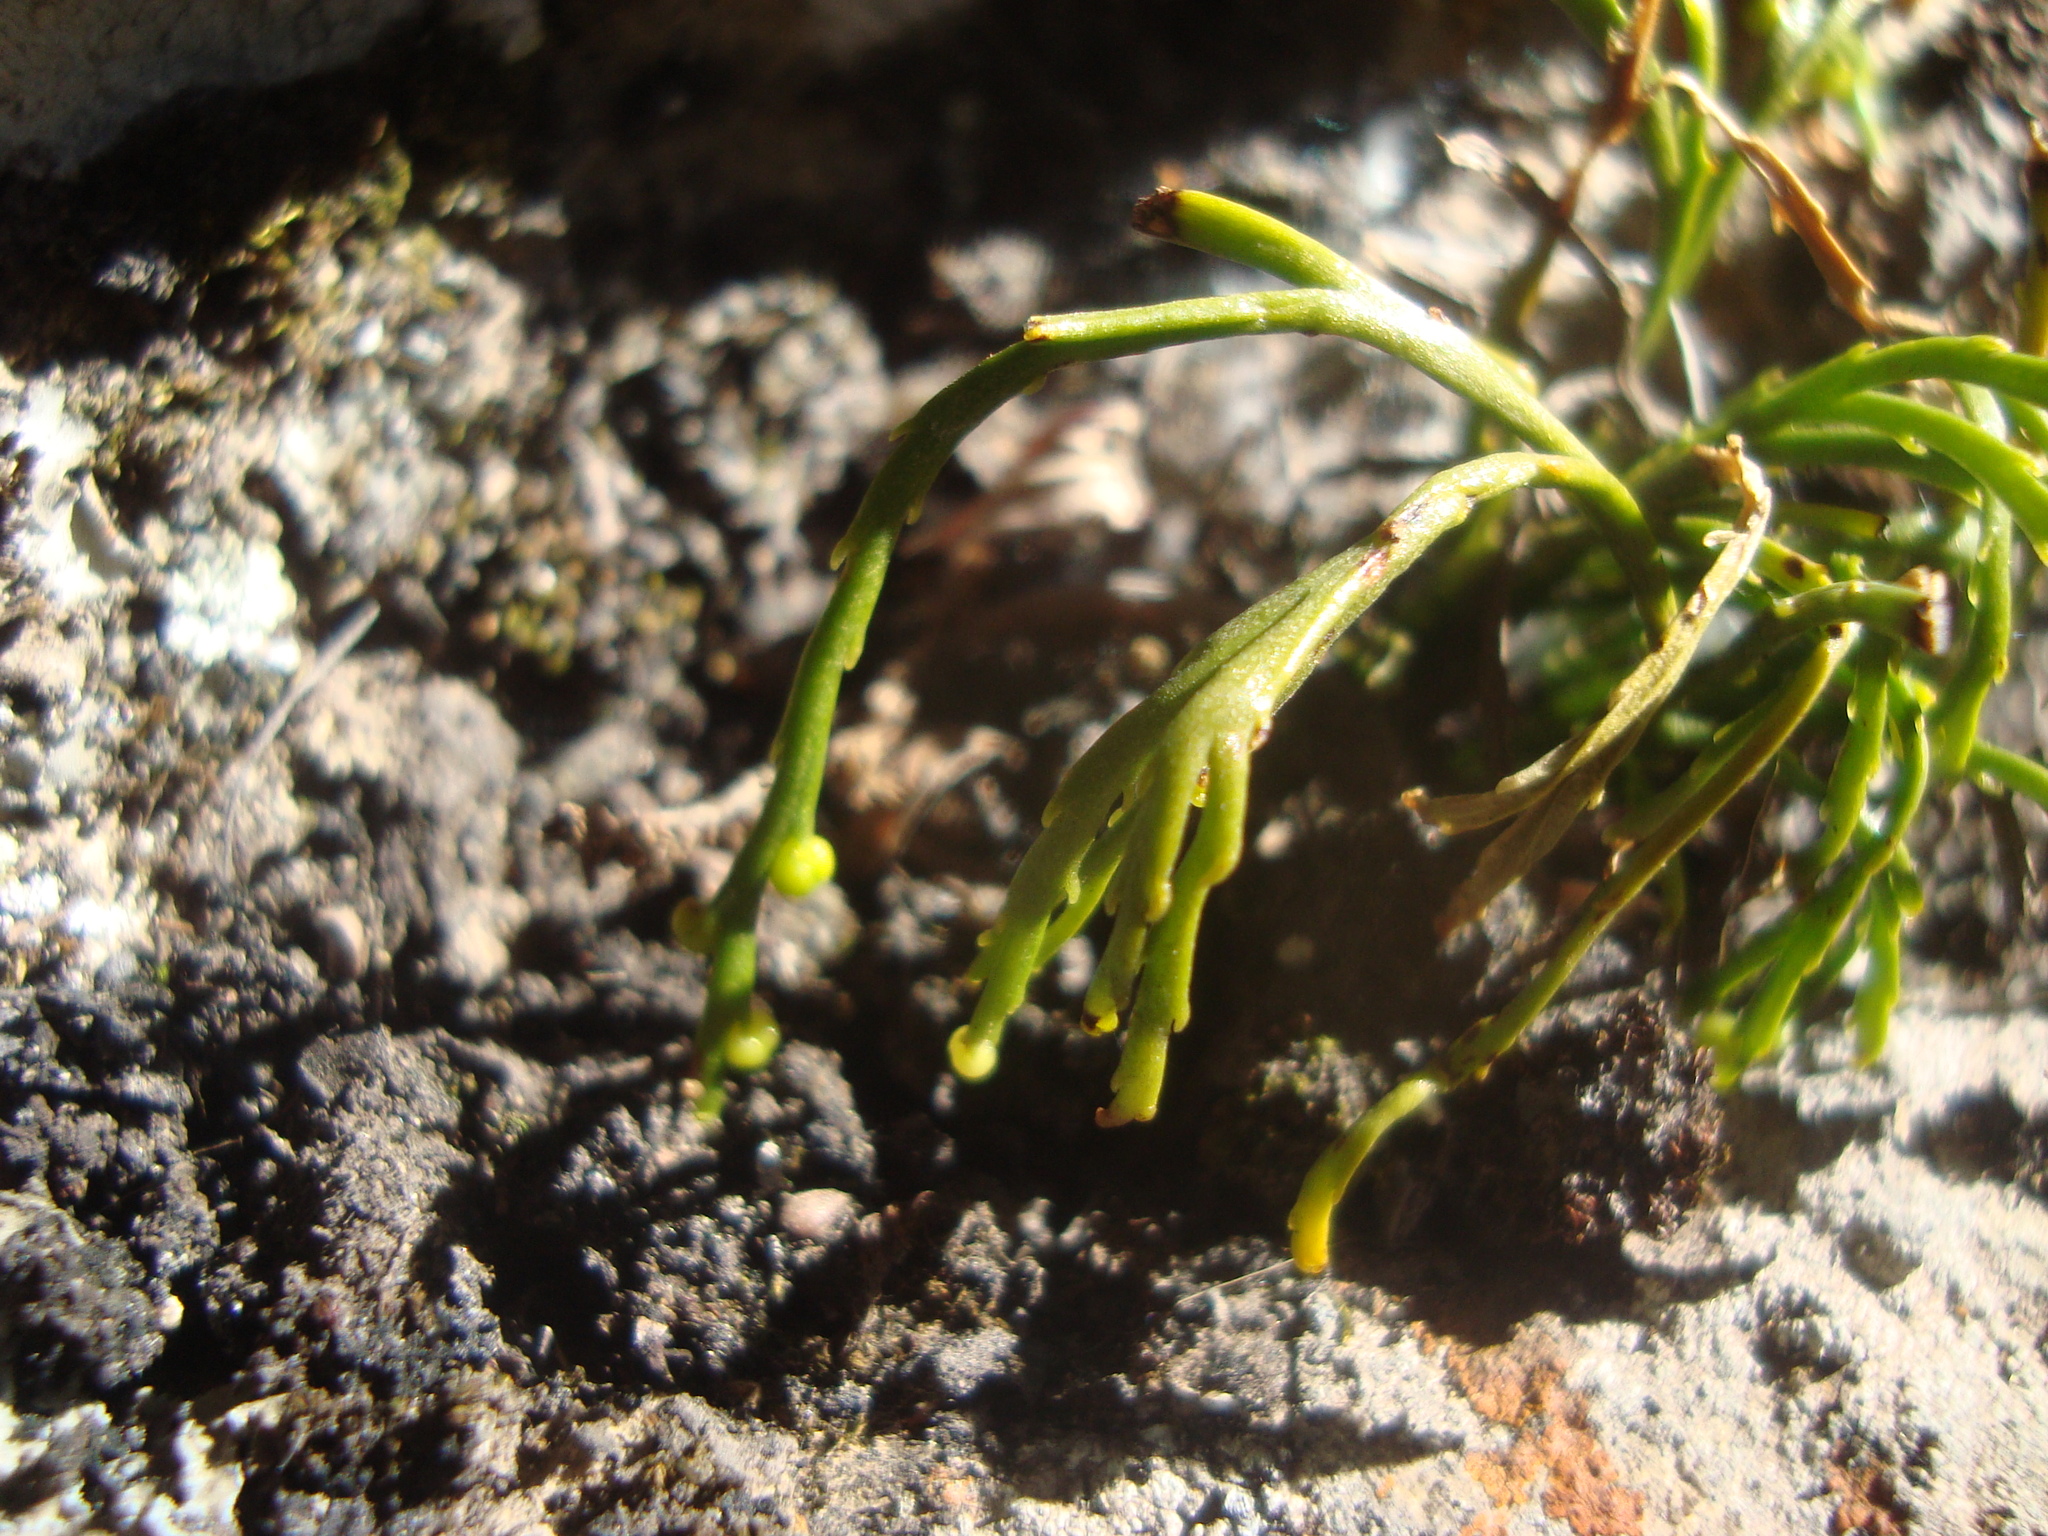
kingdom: Plantae
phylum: Tracheophyta
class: Polypodiopsida
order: Psilotales
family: Psilotaceae
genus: Psilotum
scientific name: Psilotum complanatum
